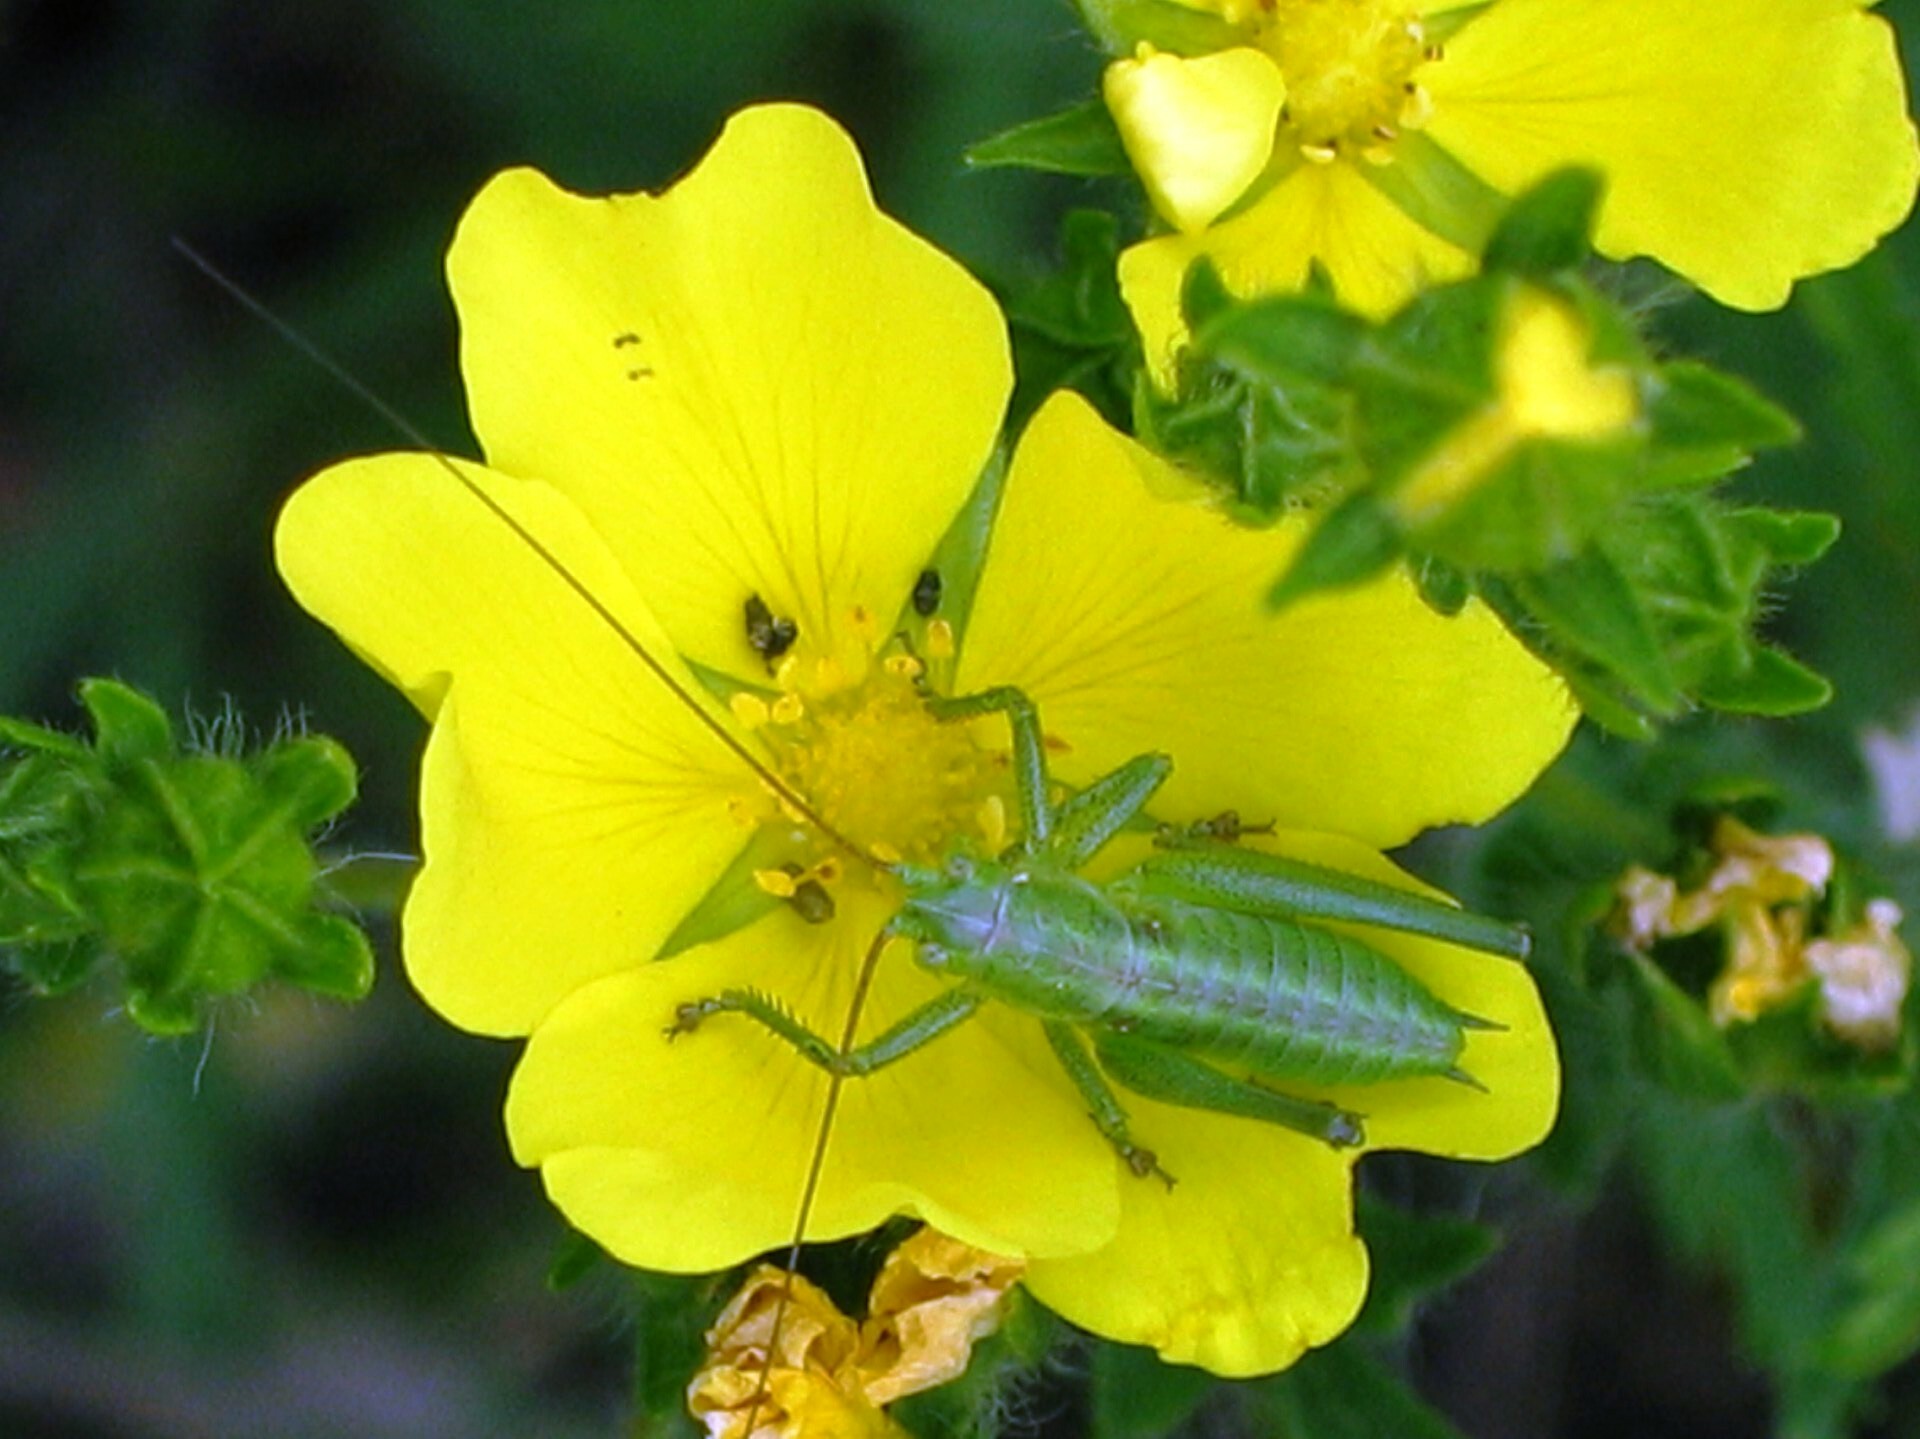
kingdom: Animalia
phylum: Arthropoda
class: Insecta
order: Orthoptera
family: Tettigoniidae
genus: Tettigonia
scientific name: Tettigonia viridissima
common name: Great green bush-cricket
